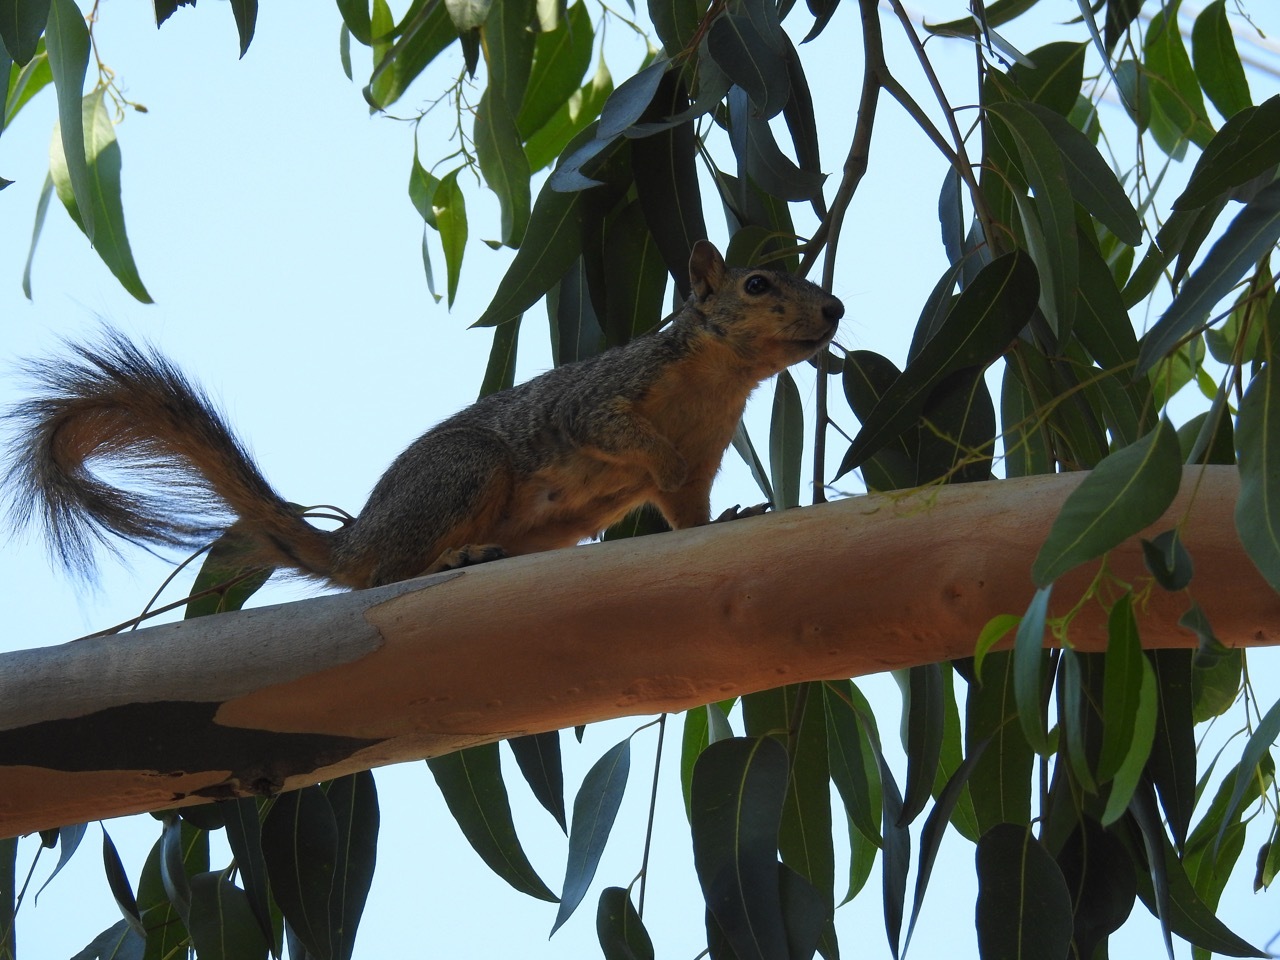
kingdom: Animalia
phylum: Chordata
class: Mammalia
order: Rodentia
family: Sciuridae
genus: Sciurus
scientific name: Sciurus niger
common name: Fox squirrel
